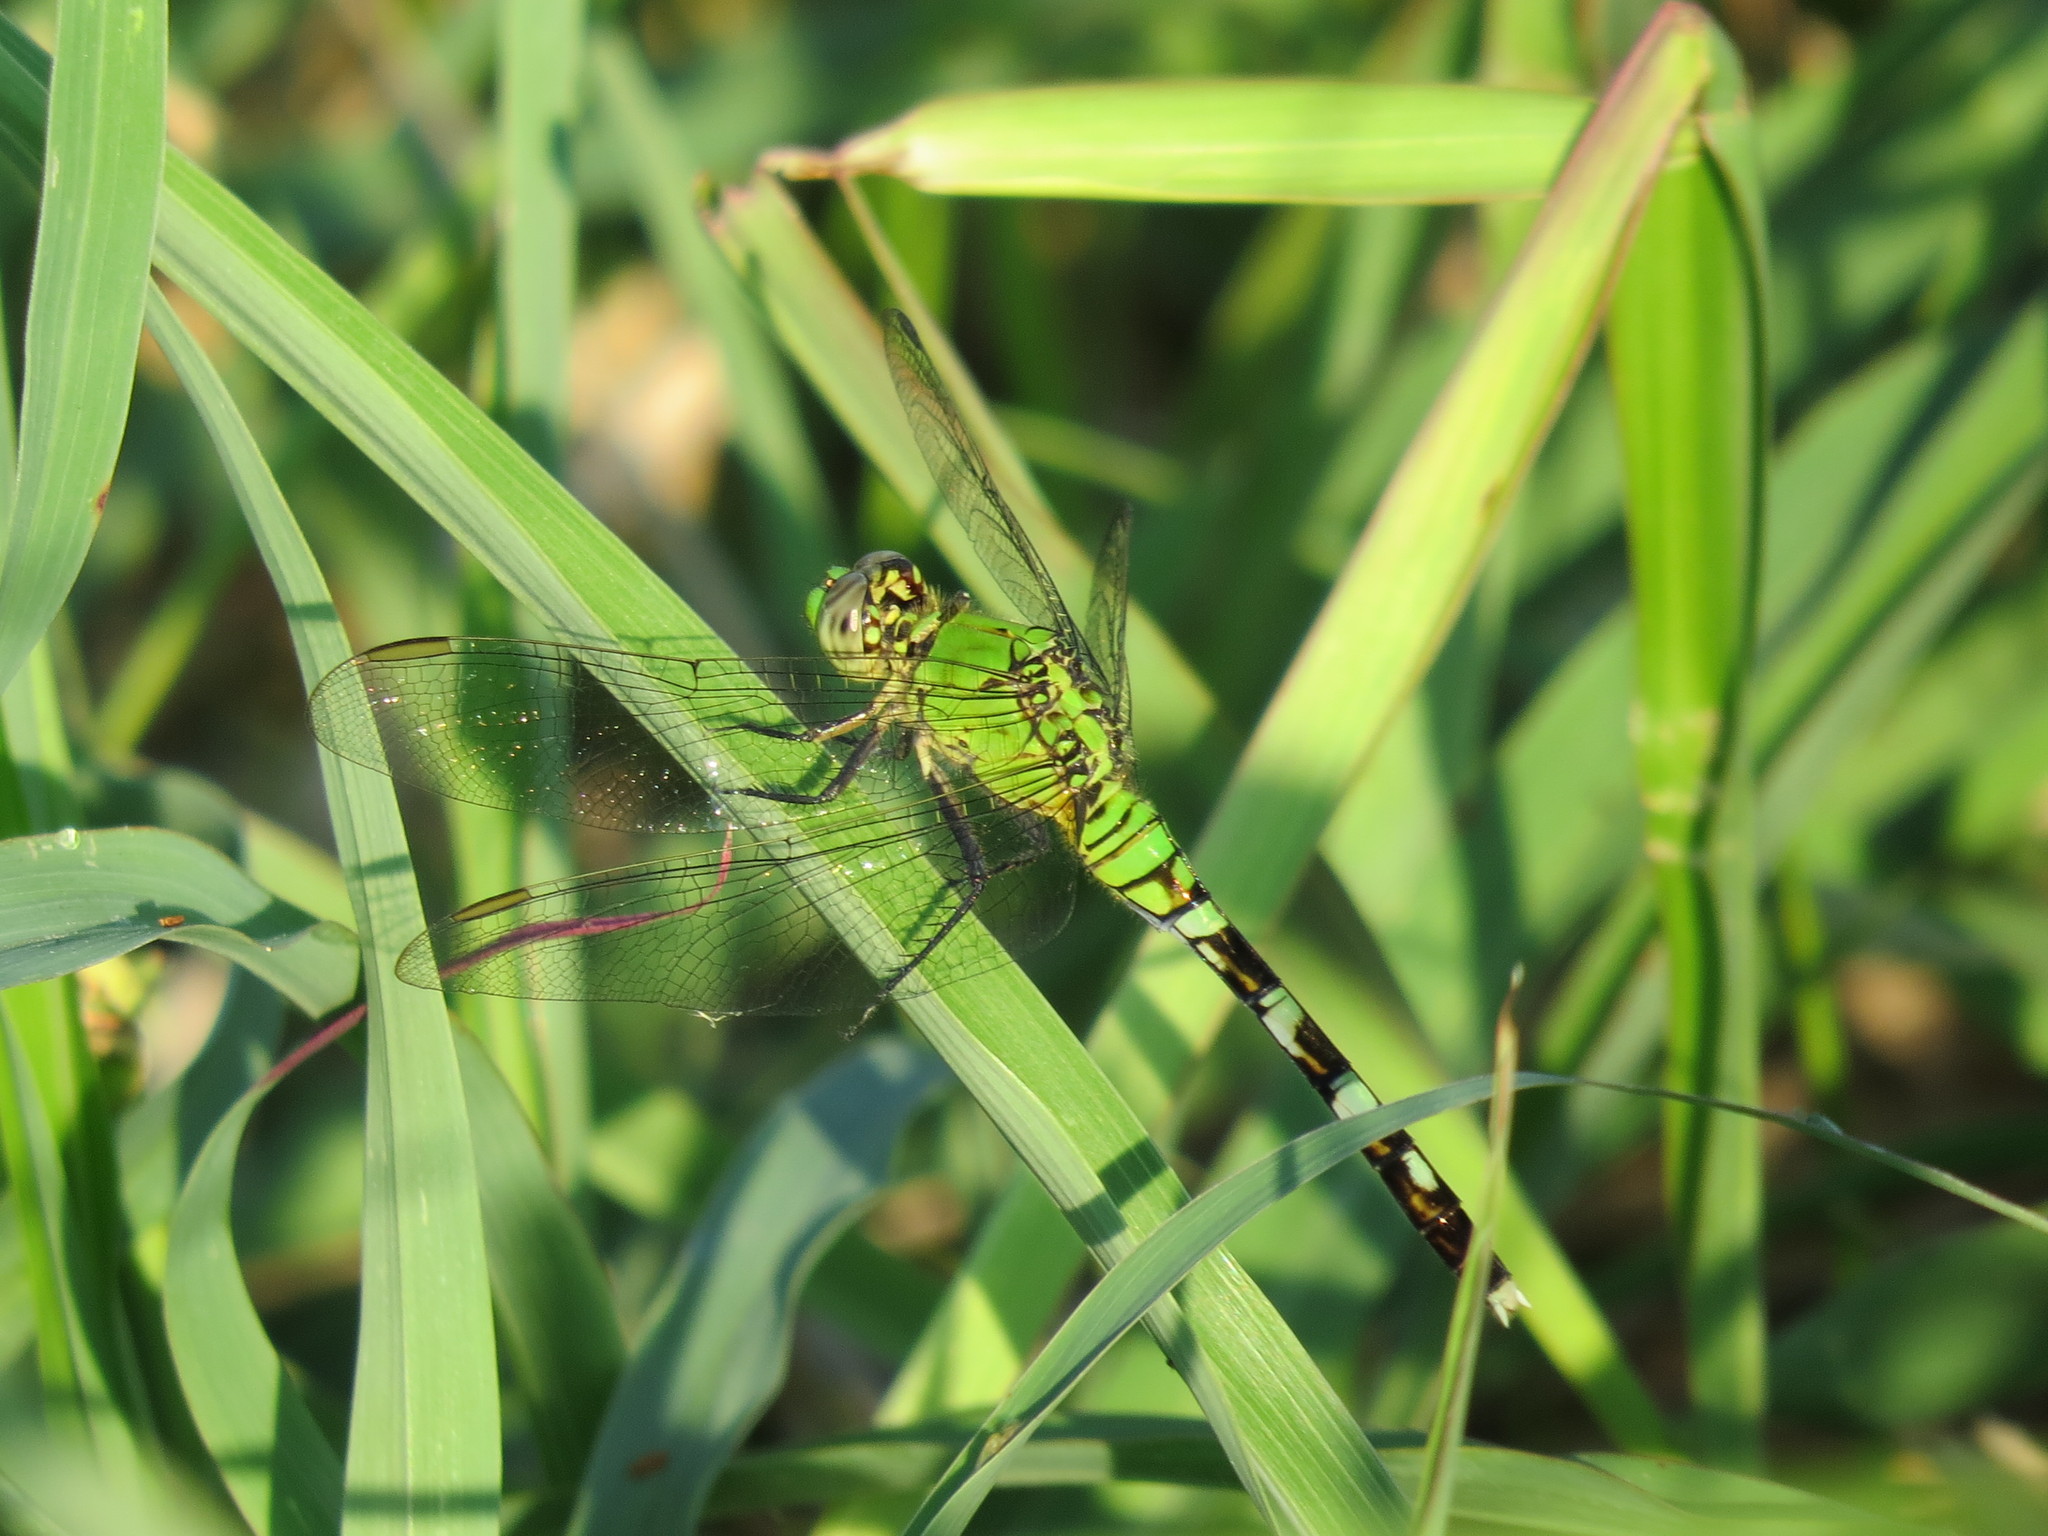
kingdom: Animalia
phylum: Arthropoda
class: Insecta
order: Odonata
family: Libellulidae
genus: Erythemis
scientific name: Erythemis simplicicollis
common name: Eastern pondhawk
